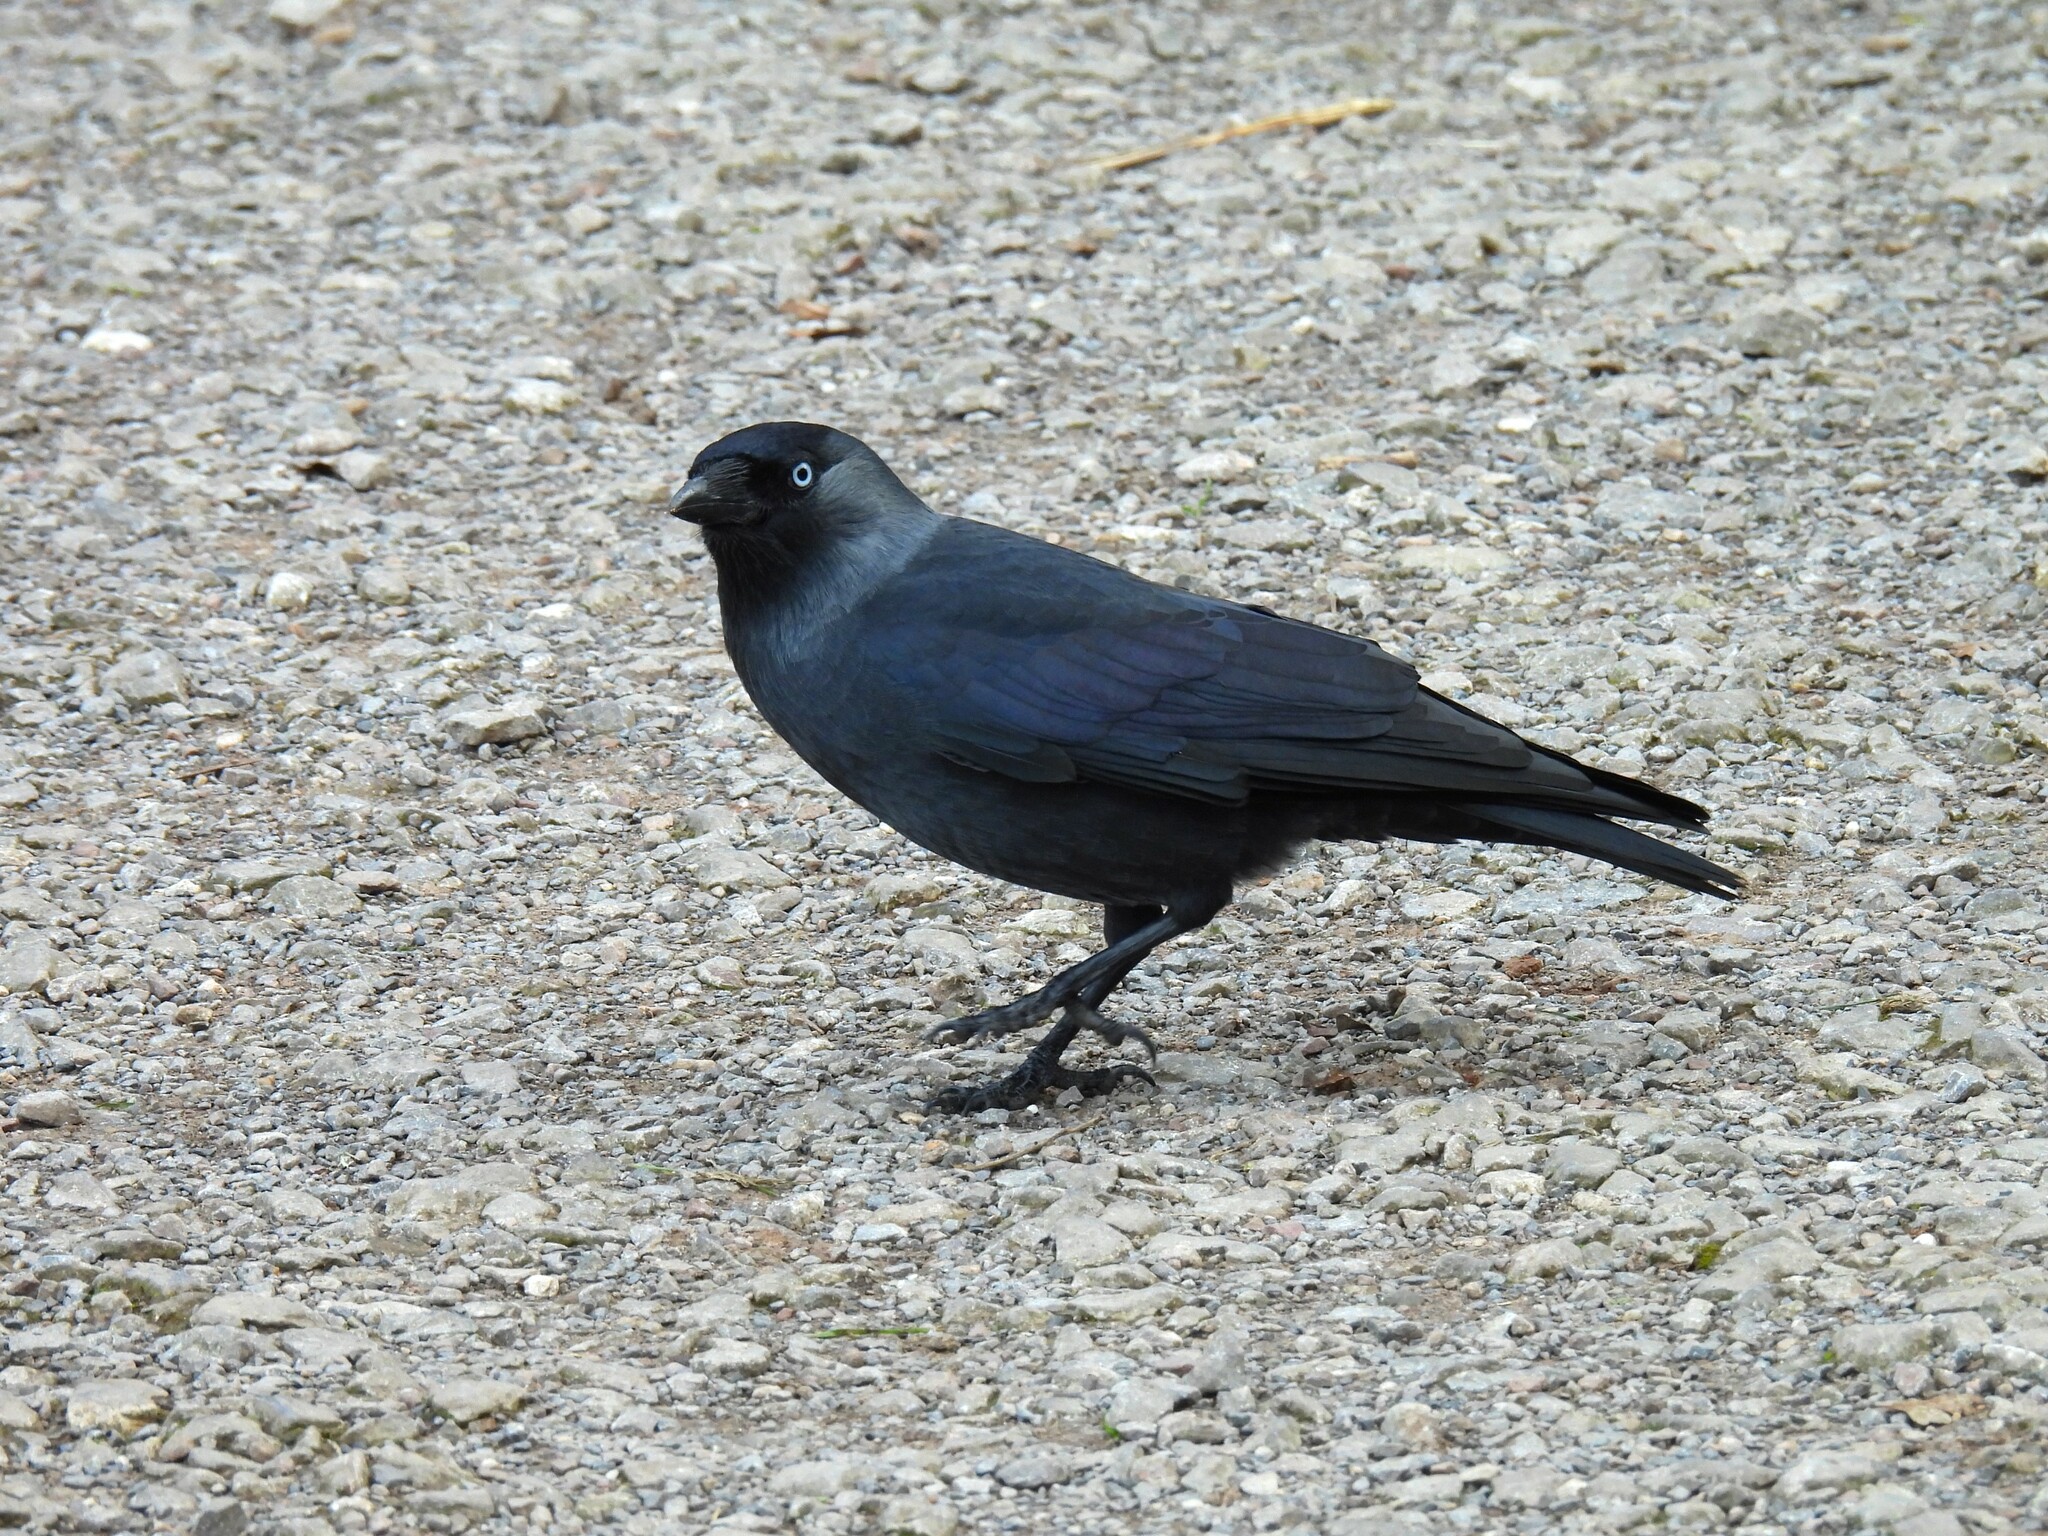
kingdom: Animalia
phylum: Chordata
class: Aves
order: Passeriformes
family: Corvidae
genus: Coloeus
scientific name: Coloeus monedula
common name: Western jackdaw
